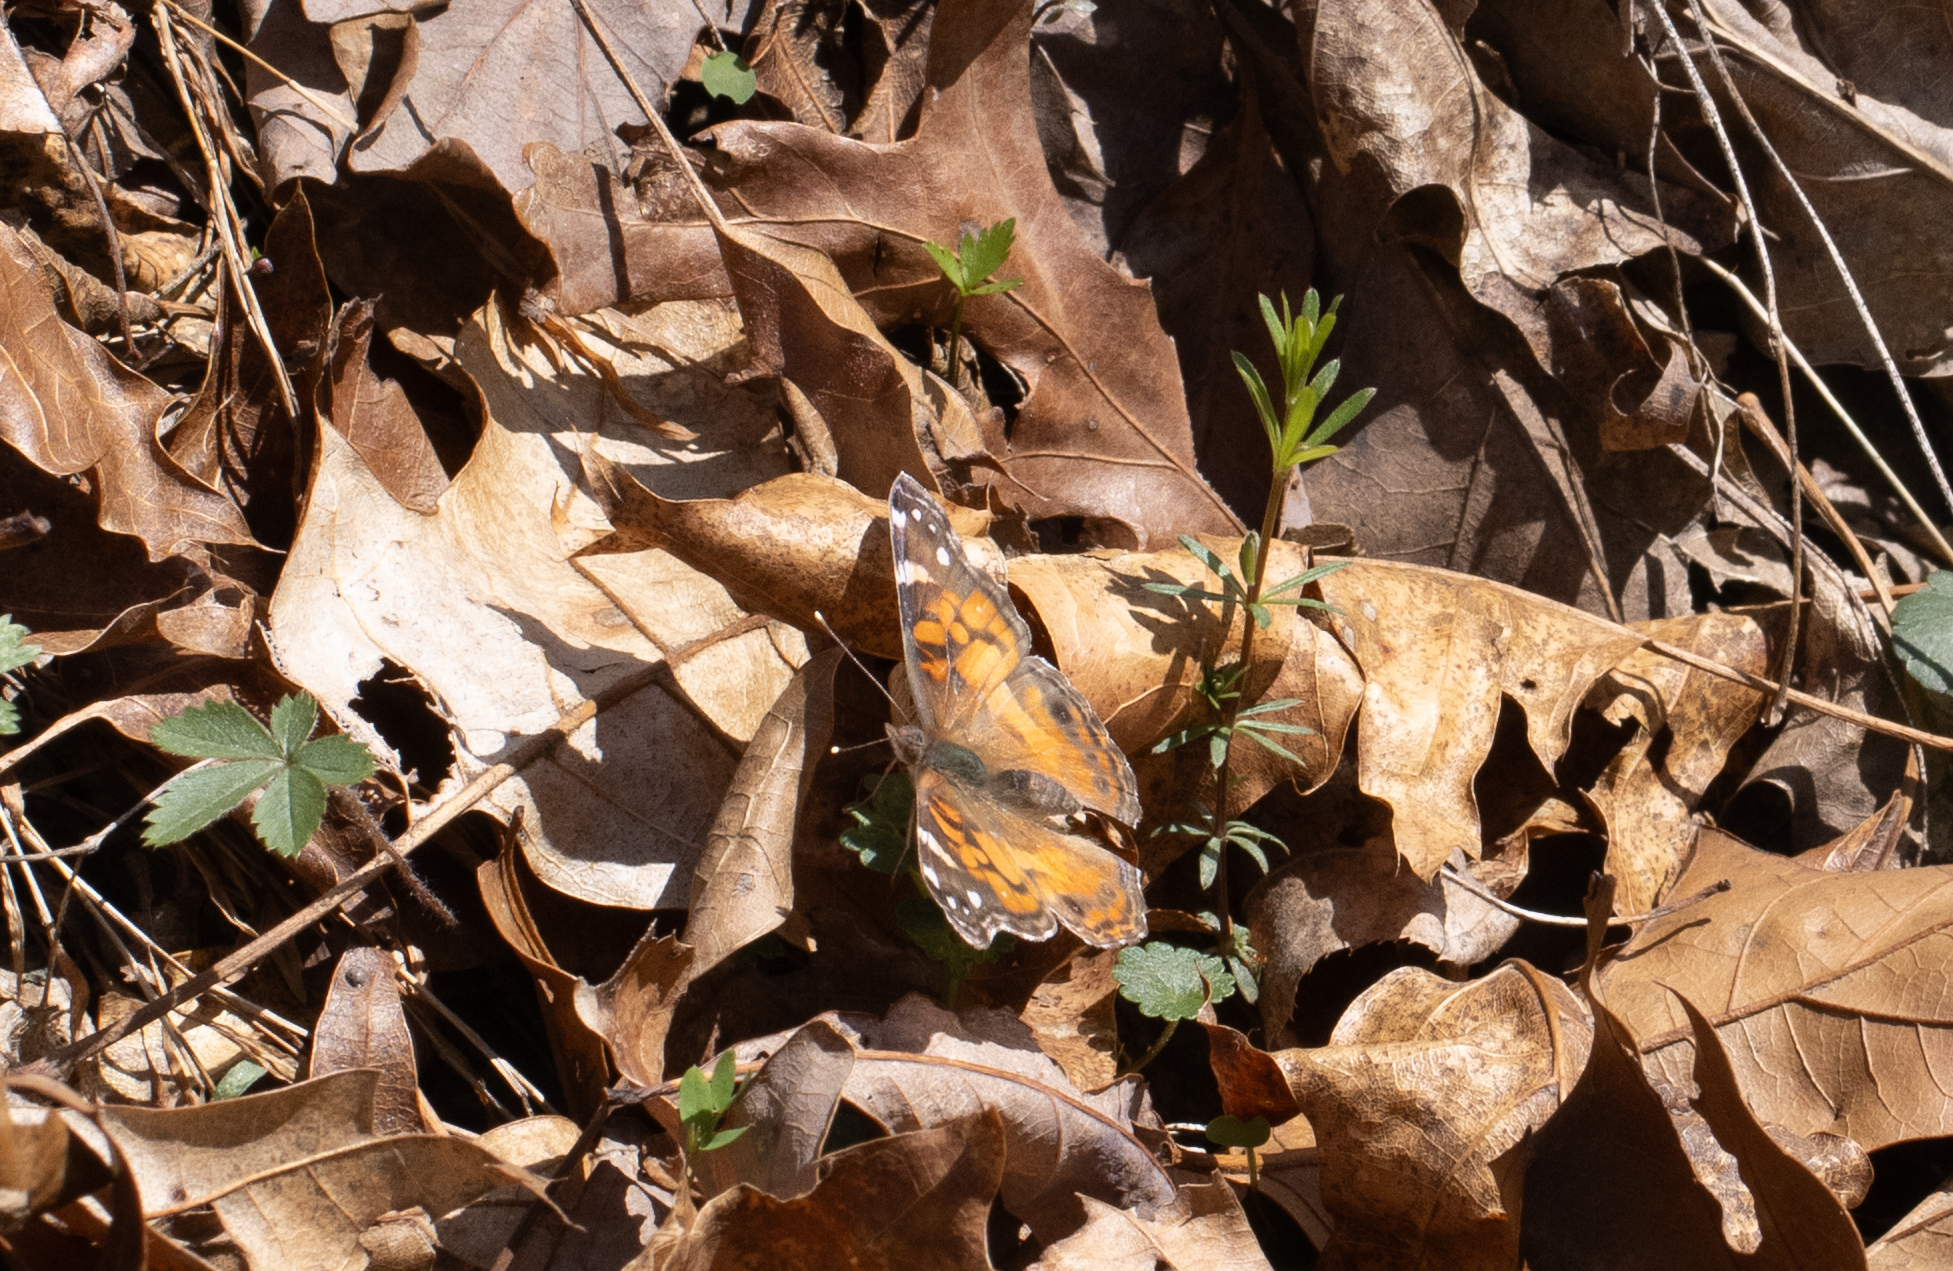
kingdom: Animalia
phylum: Arthropoda
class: Insecta
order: Lepidoptera
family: Nymphalidae
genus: Vanessa
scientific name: Vanessa virginiensis
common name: American lady
